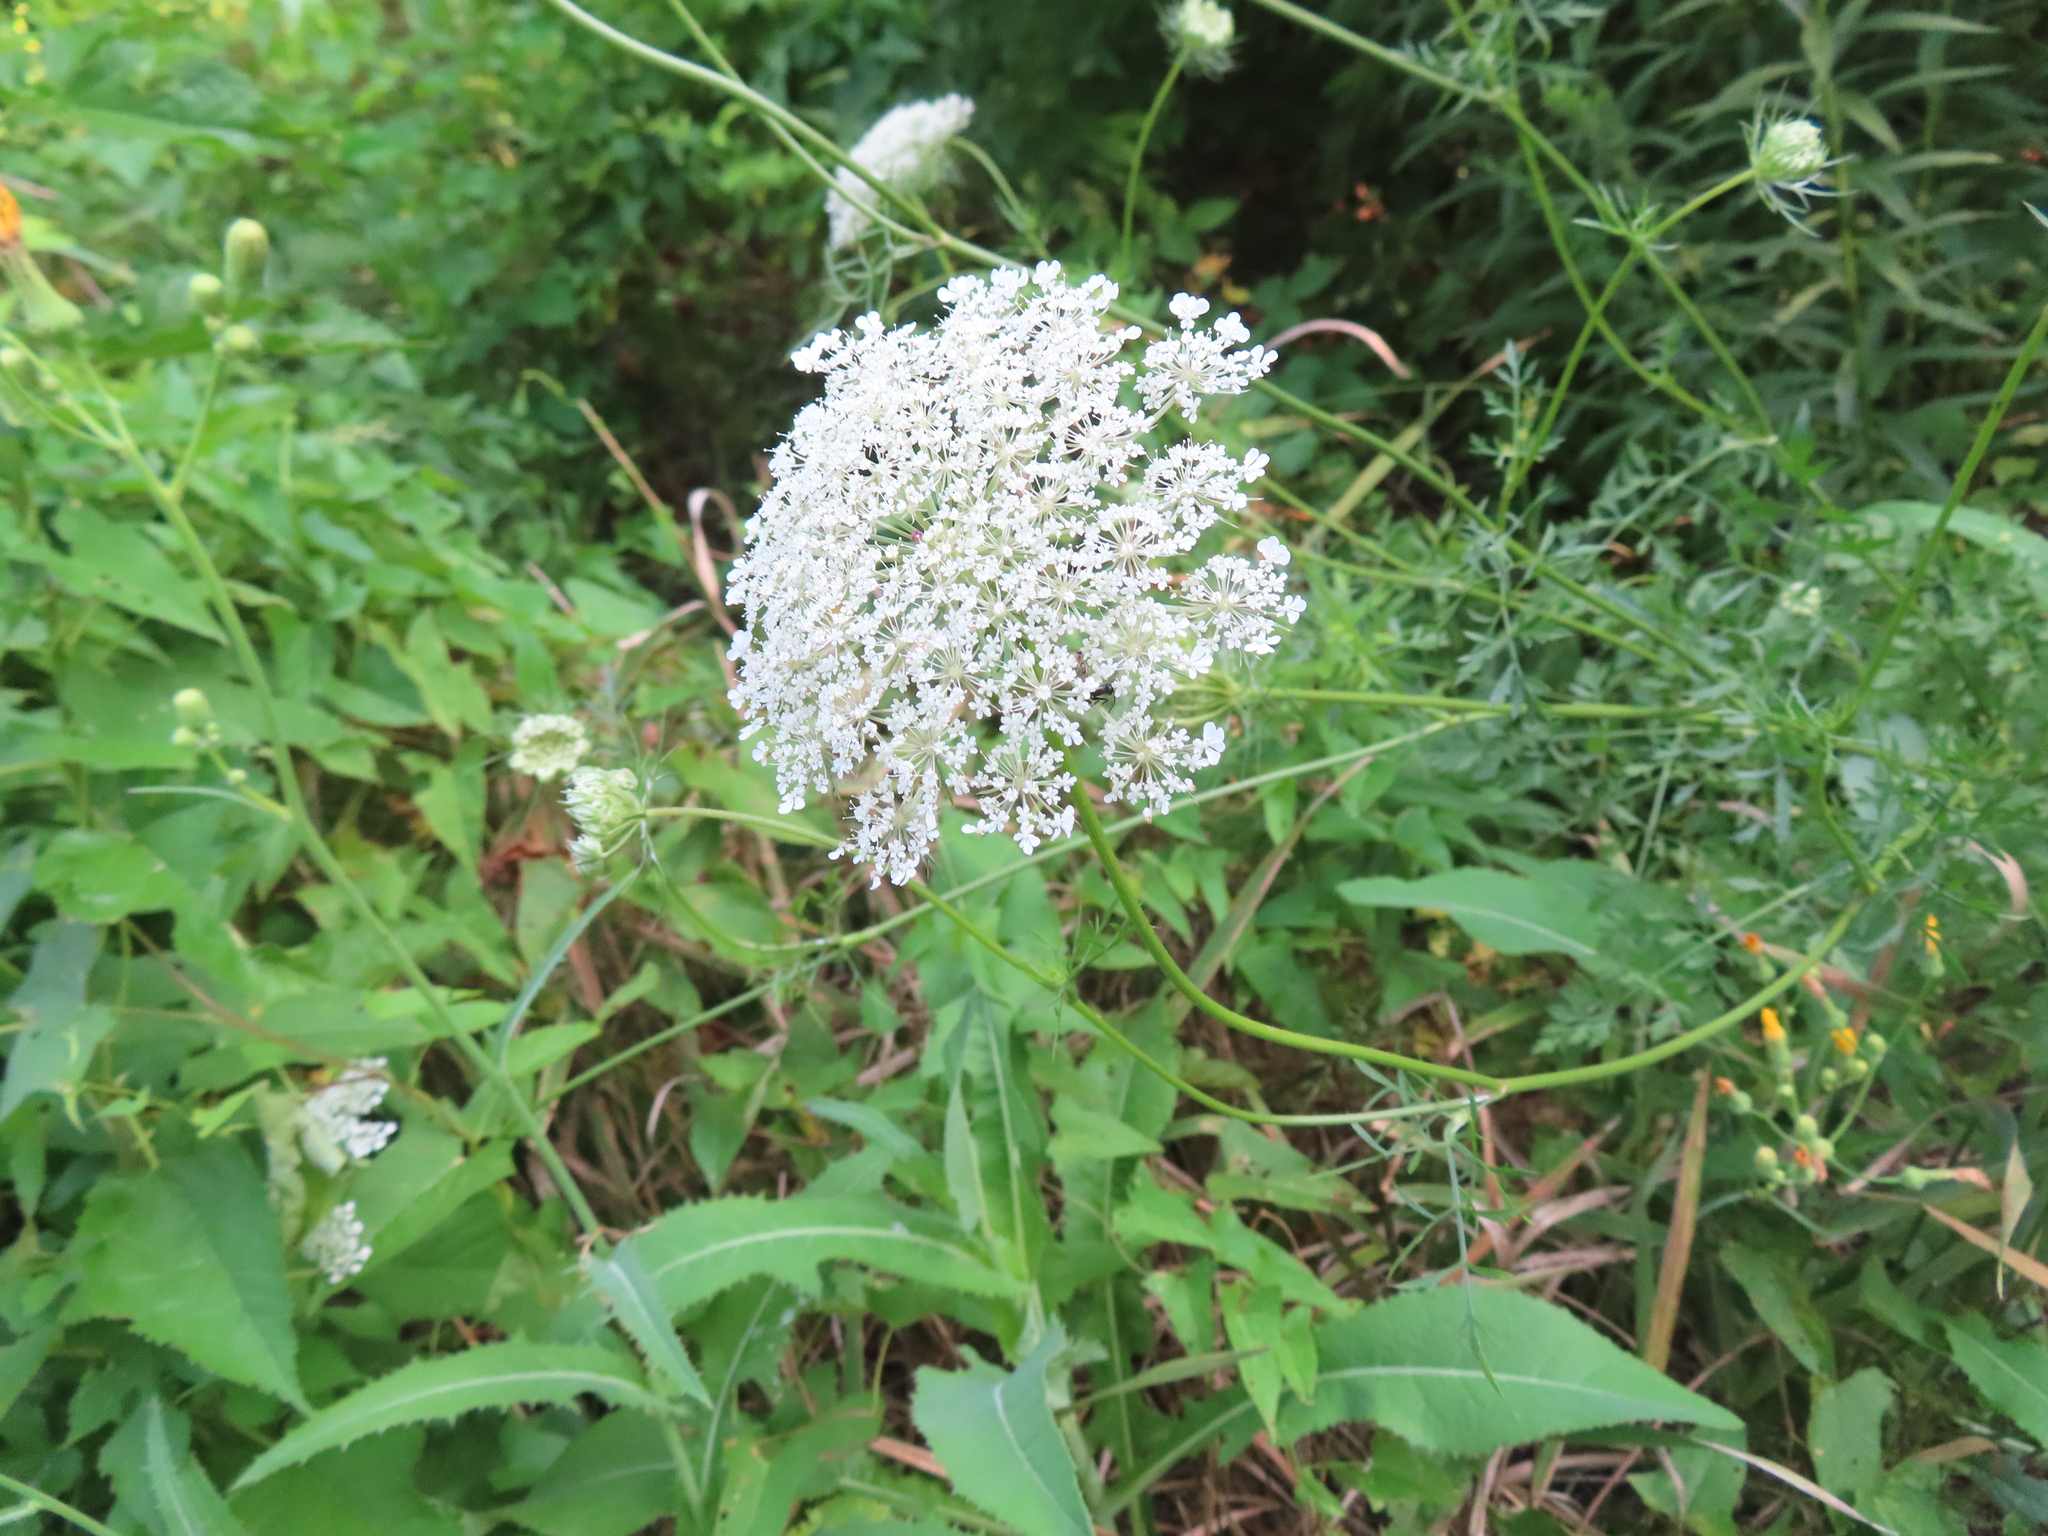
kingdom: Plantae
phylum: Tracheophyta
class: Magnoliopsida
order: Apiales
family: Apiaceae
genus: Daucus
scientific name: Daucus carota
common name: Wild carrot
